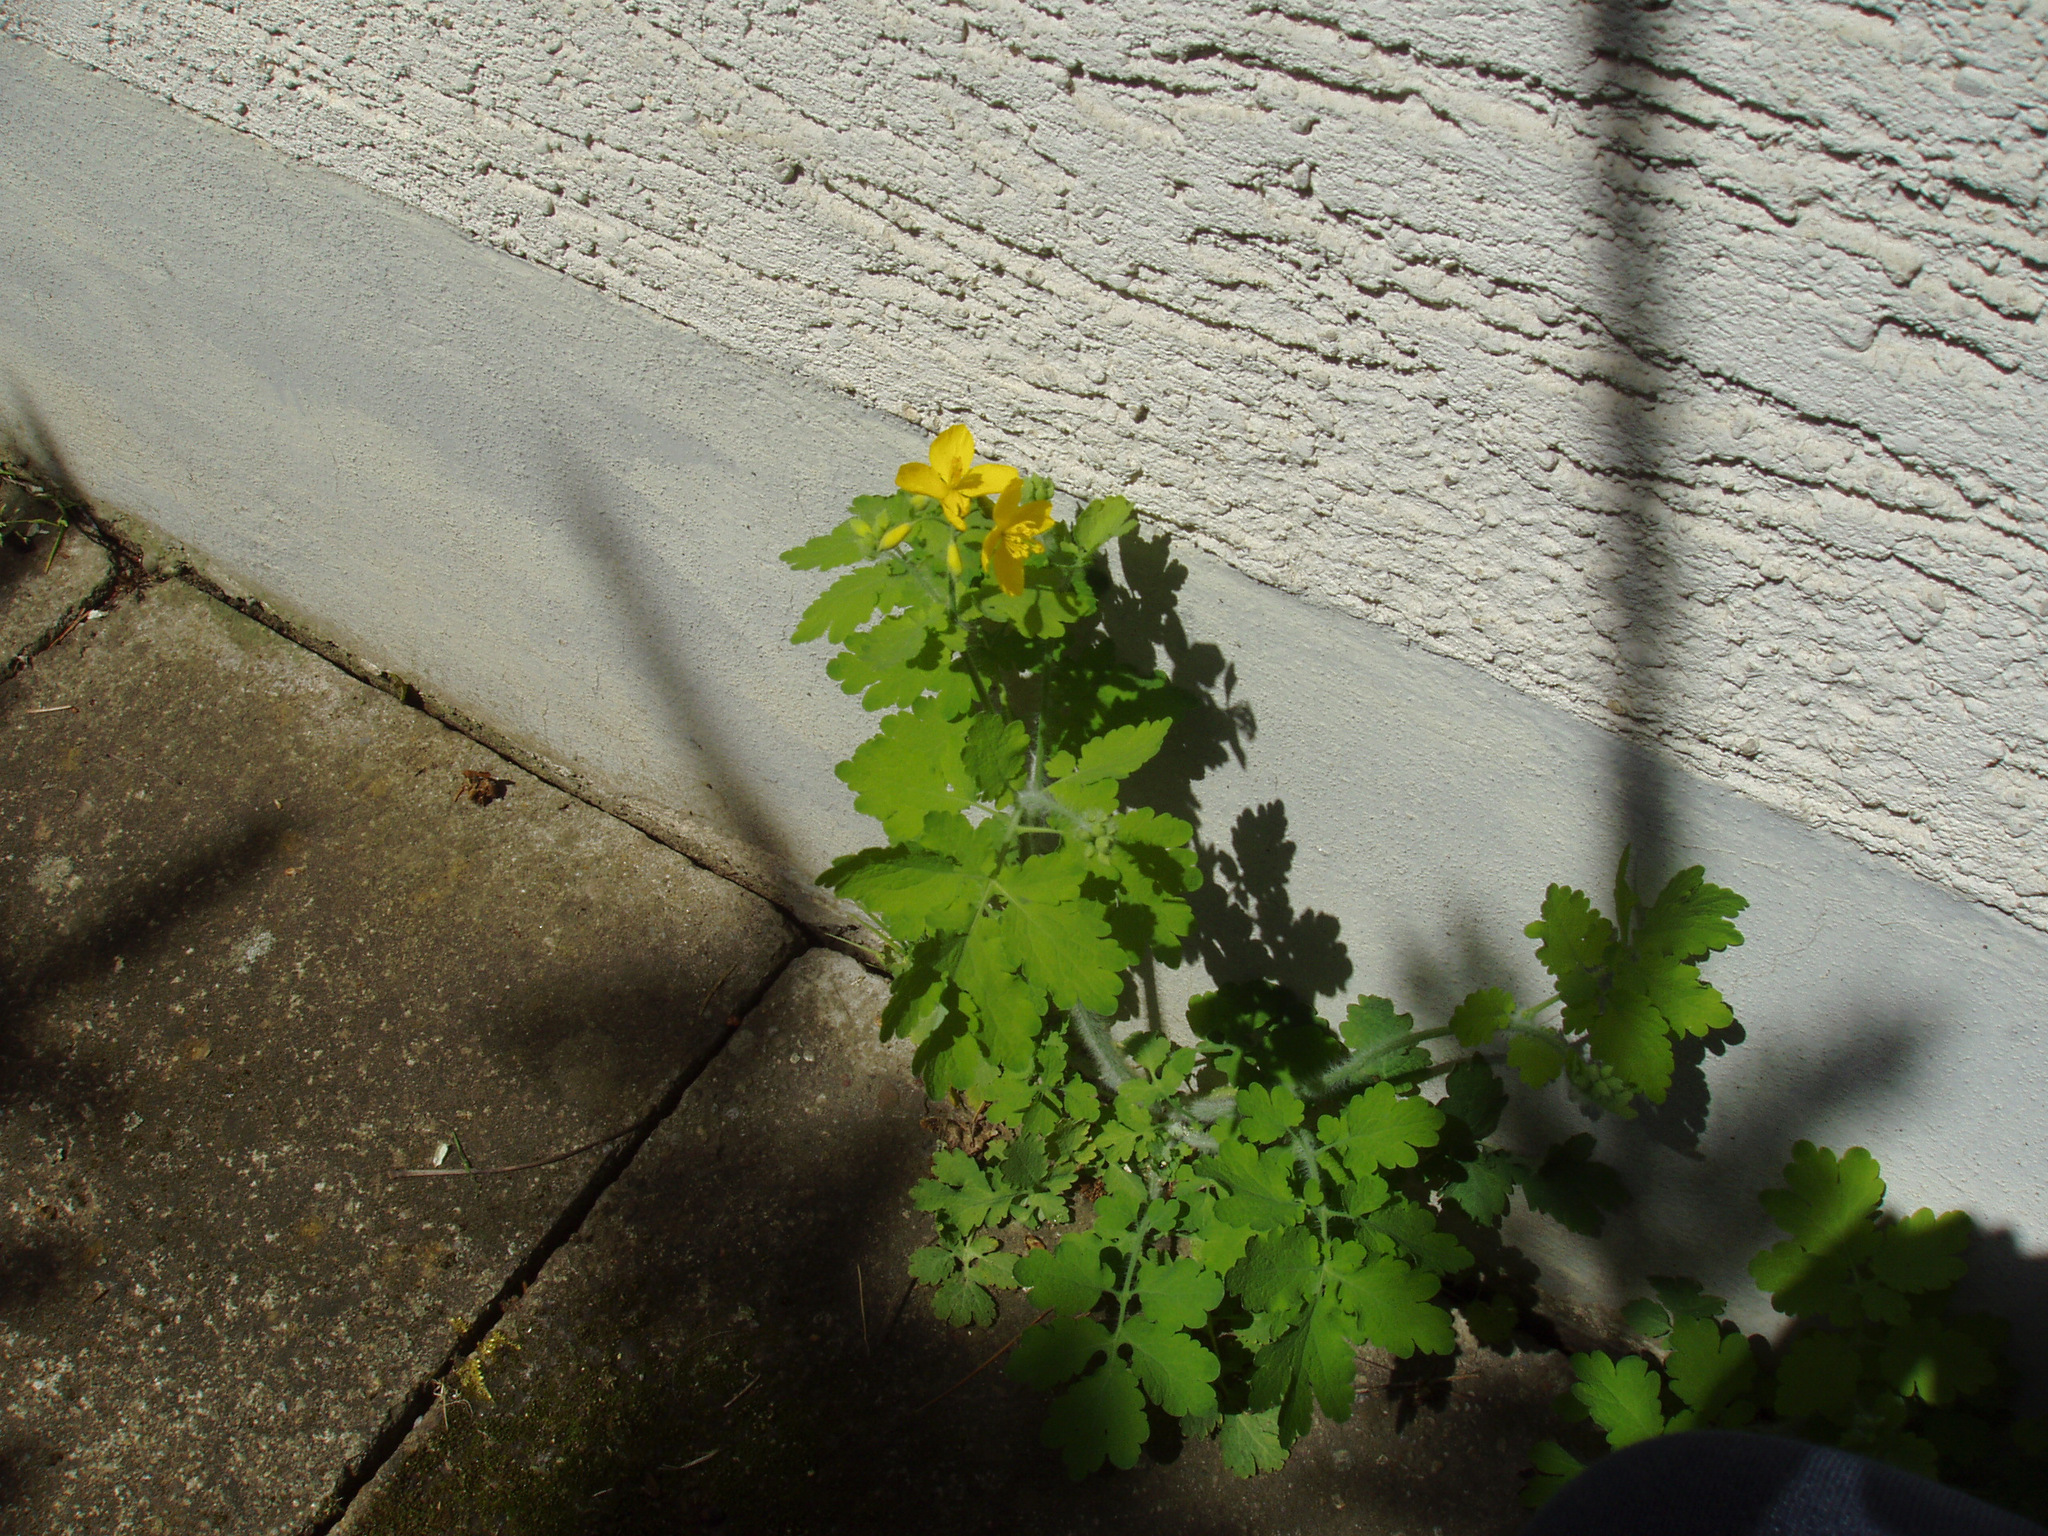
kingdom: Plantae
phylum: Tracheophyta
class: Magnoliopsida
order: Ranunculales
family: Papaveraceae
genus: Chelidonium
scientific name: Chelidonium majus
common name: Greater celandine
